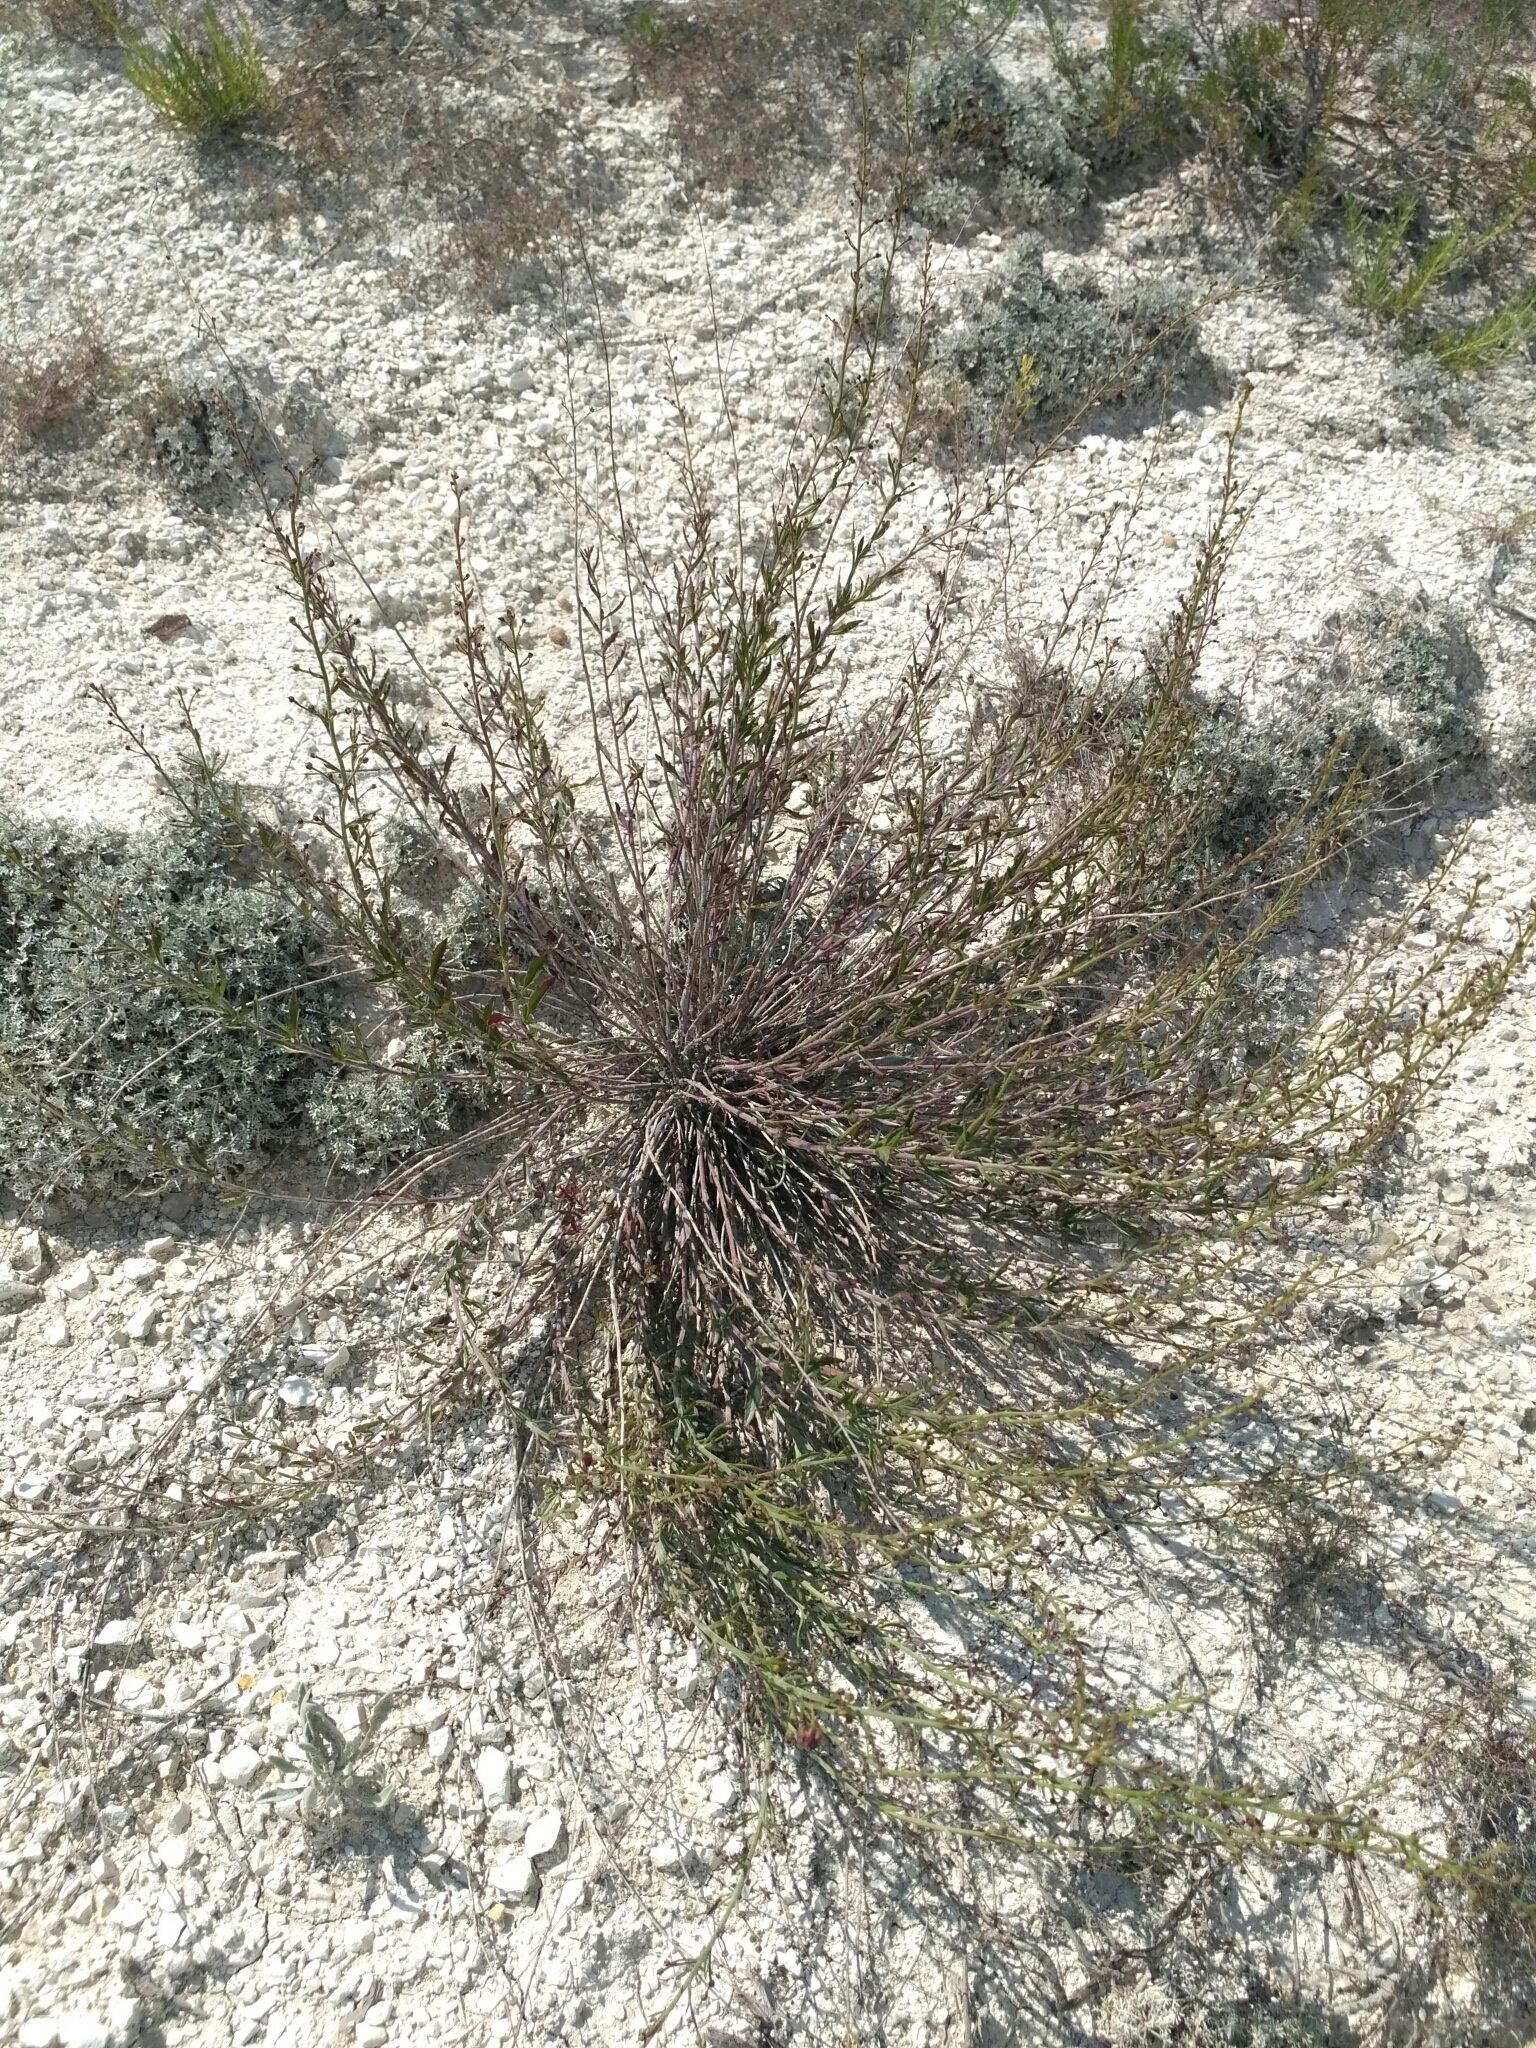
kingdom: Plantae
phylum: Tracheophyta
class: Magnoliopsida
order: Lamiales
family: Scrophulariaceae
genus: Scrophularia
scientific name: Scrophularia cretacea
